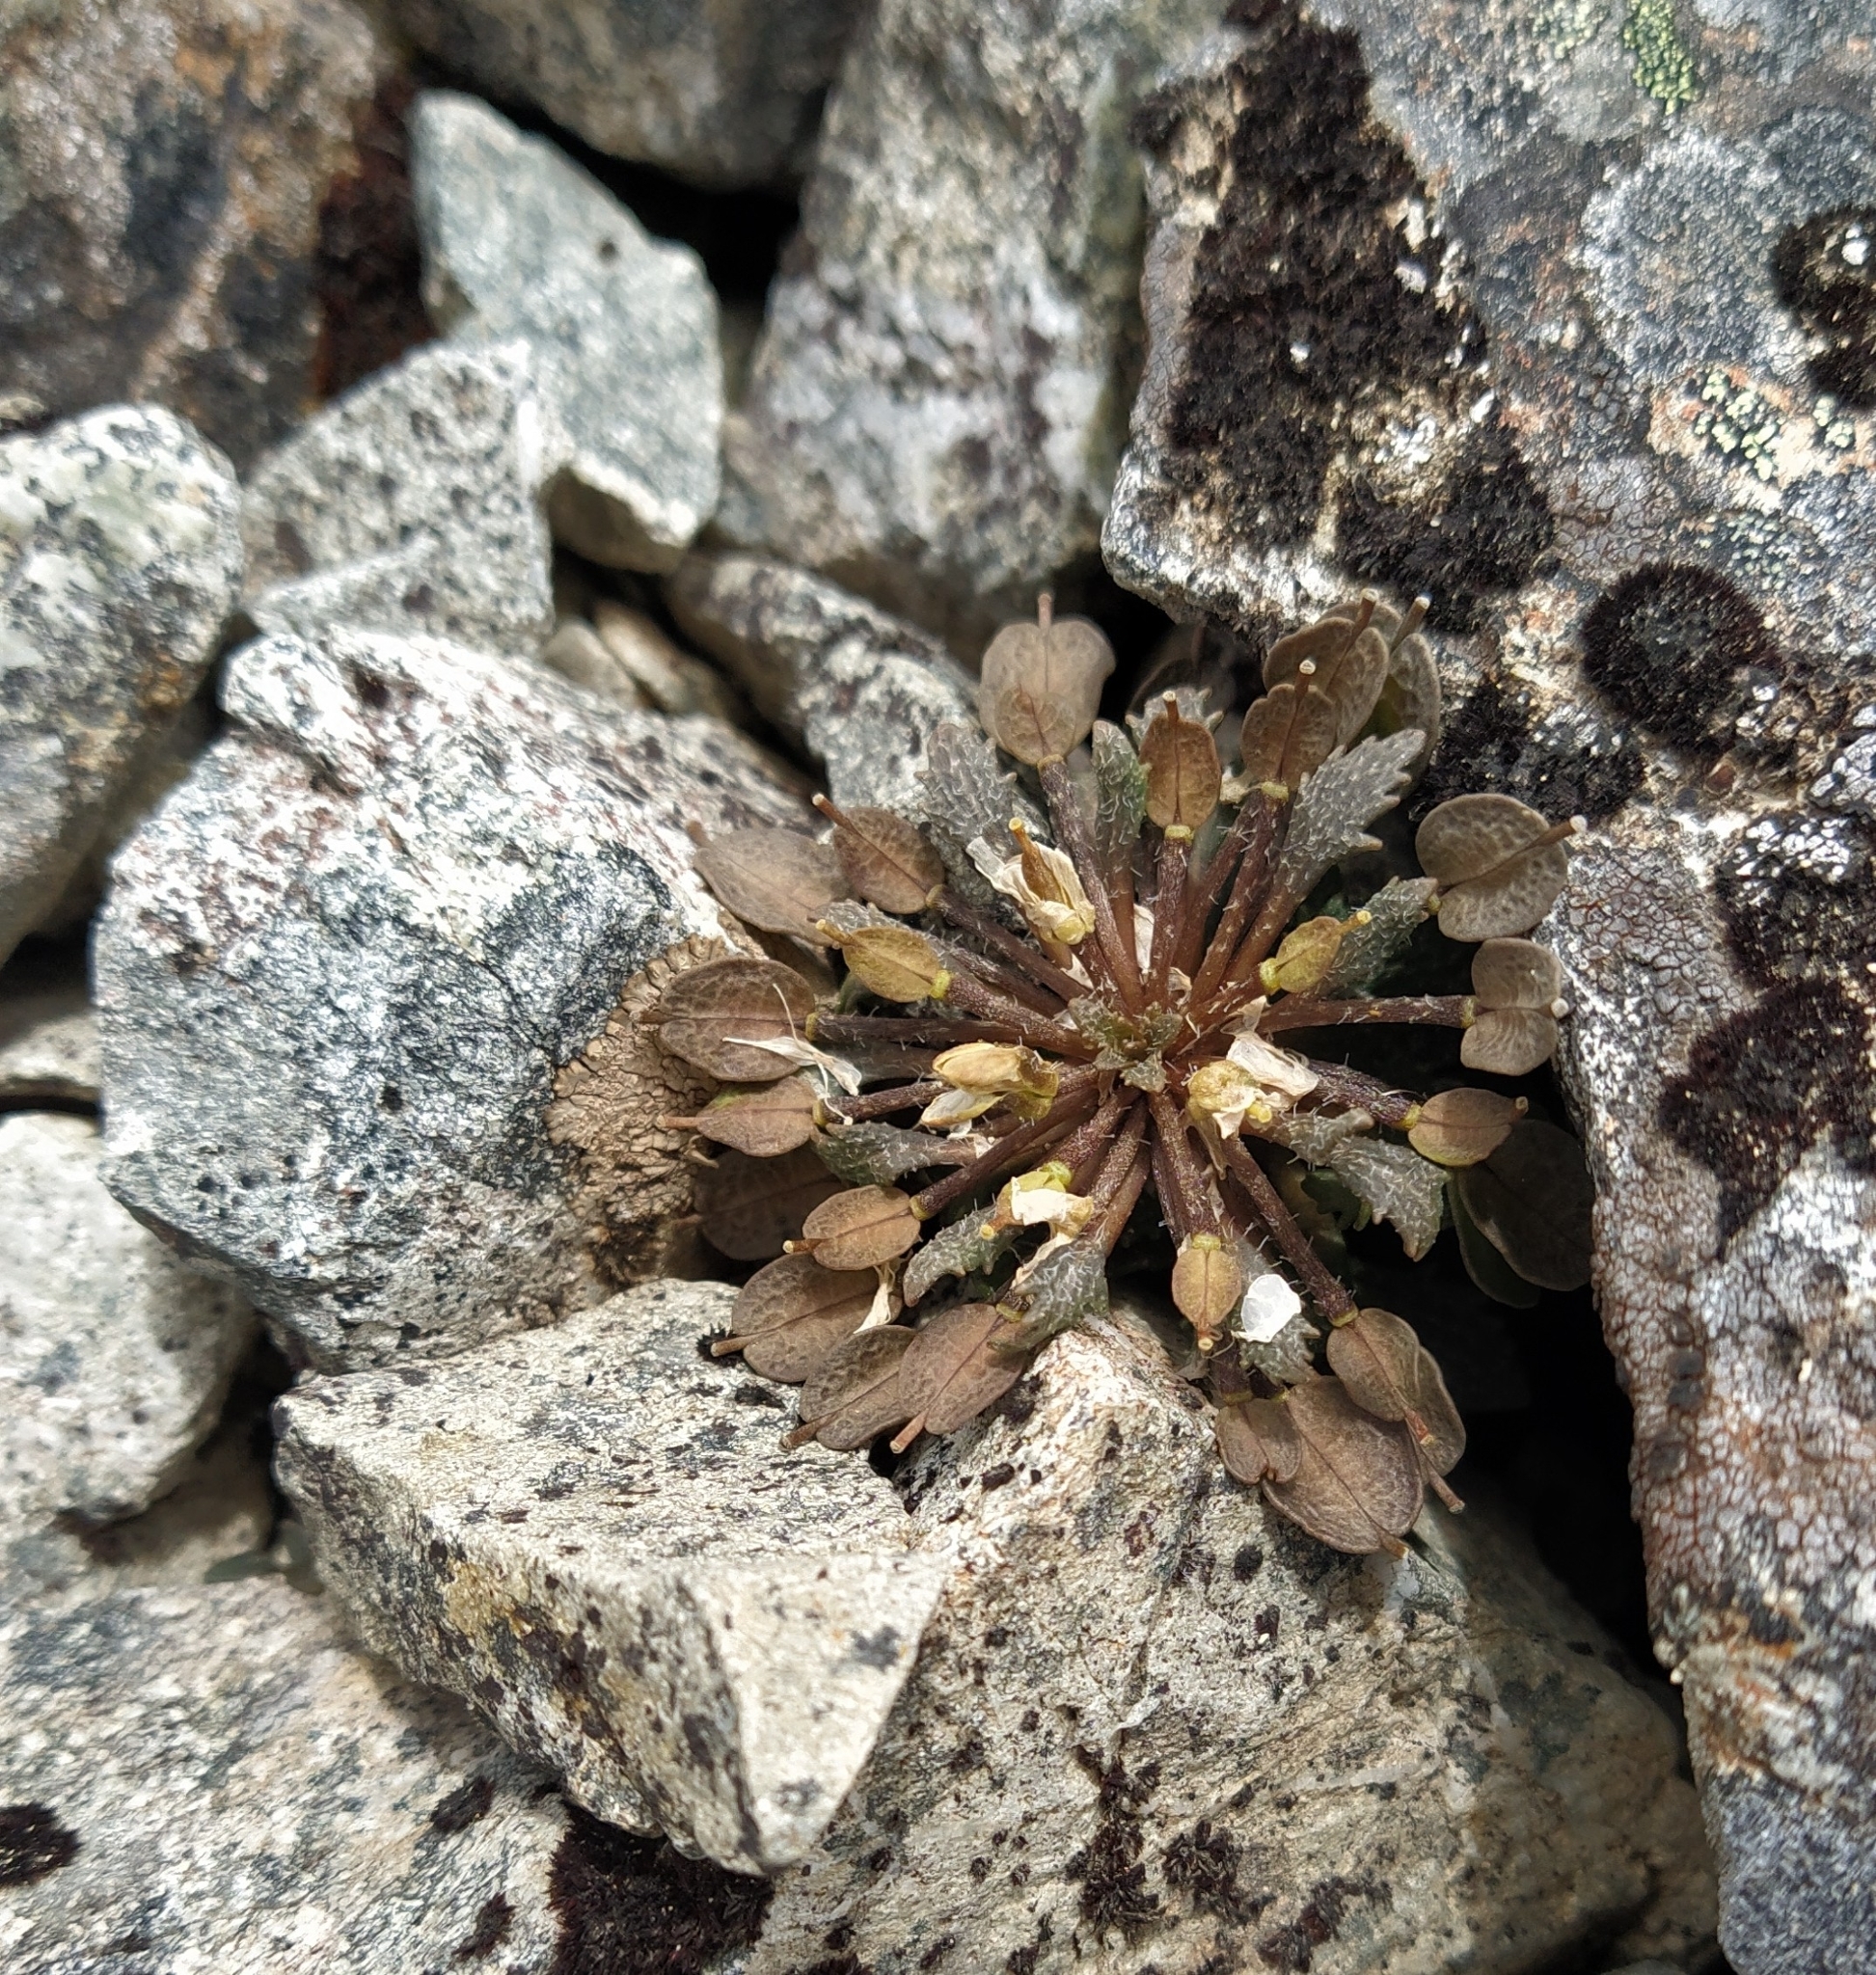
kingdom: Plantae
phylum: Tracheophyta
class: Magnoliopsida
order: Brassicales
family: Brassicaceae
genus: Notothlaspi
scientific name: Notothlaspi australe
